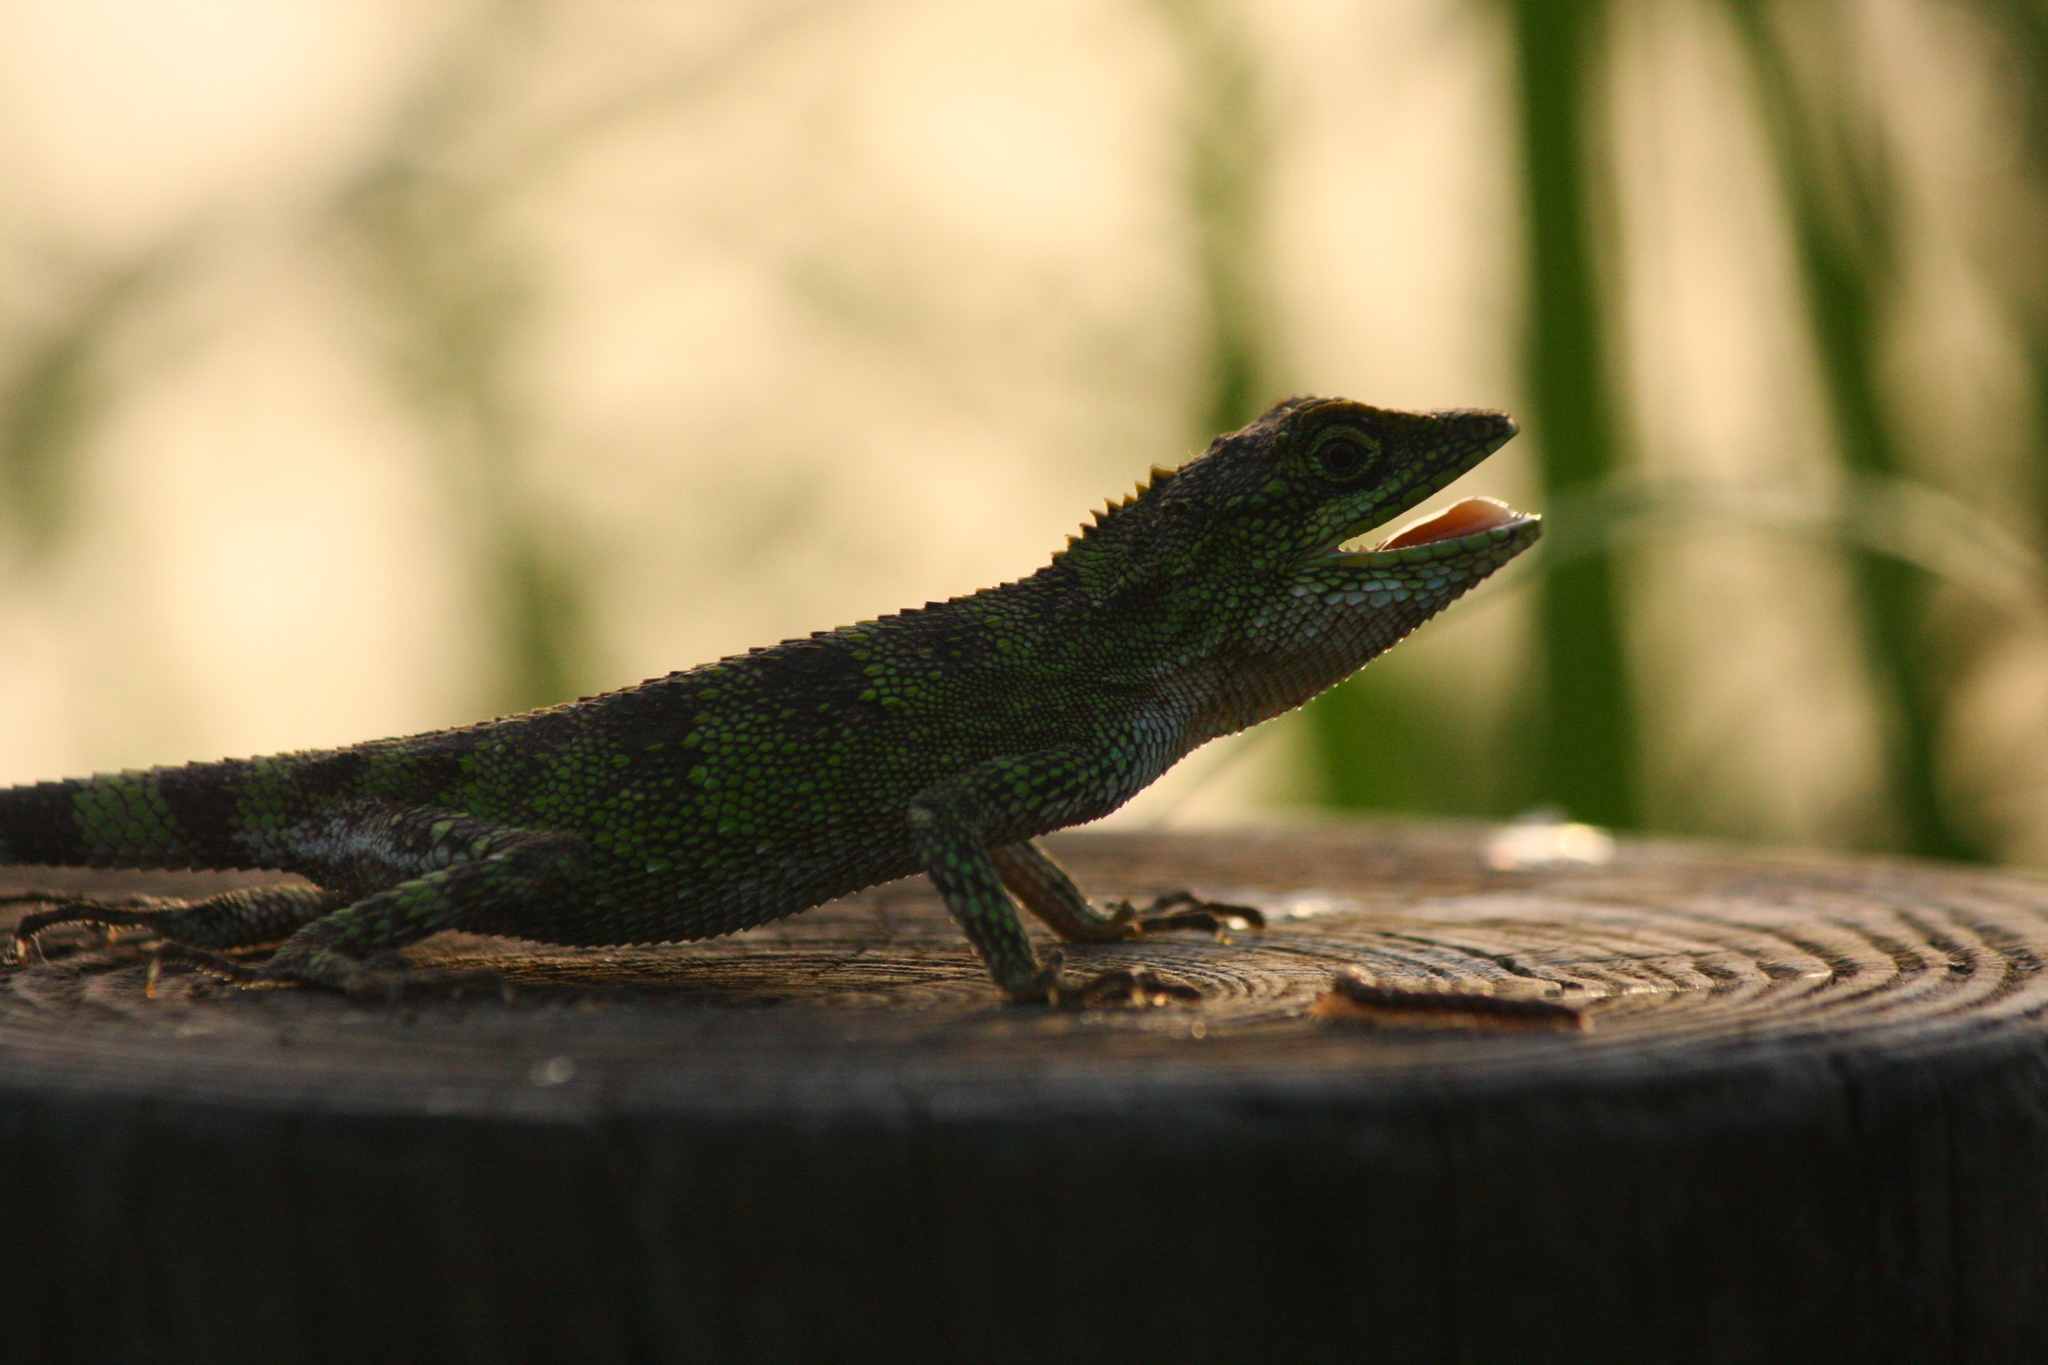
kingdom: Fungi
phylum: Basidiomycota
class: Agaricomycetes
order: Boletales
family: Diplocystidiaceae
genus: Diploderma
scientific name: Diploderma polygonatum
